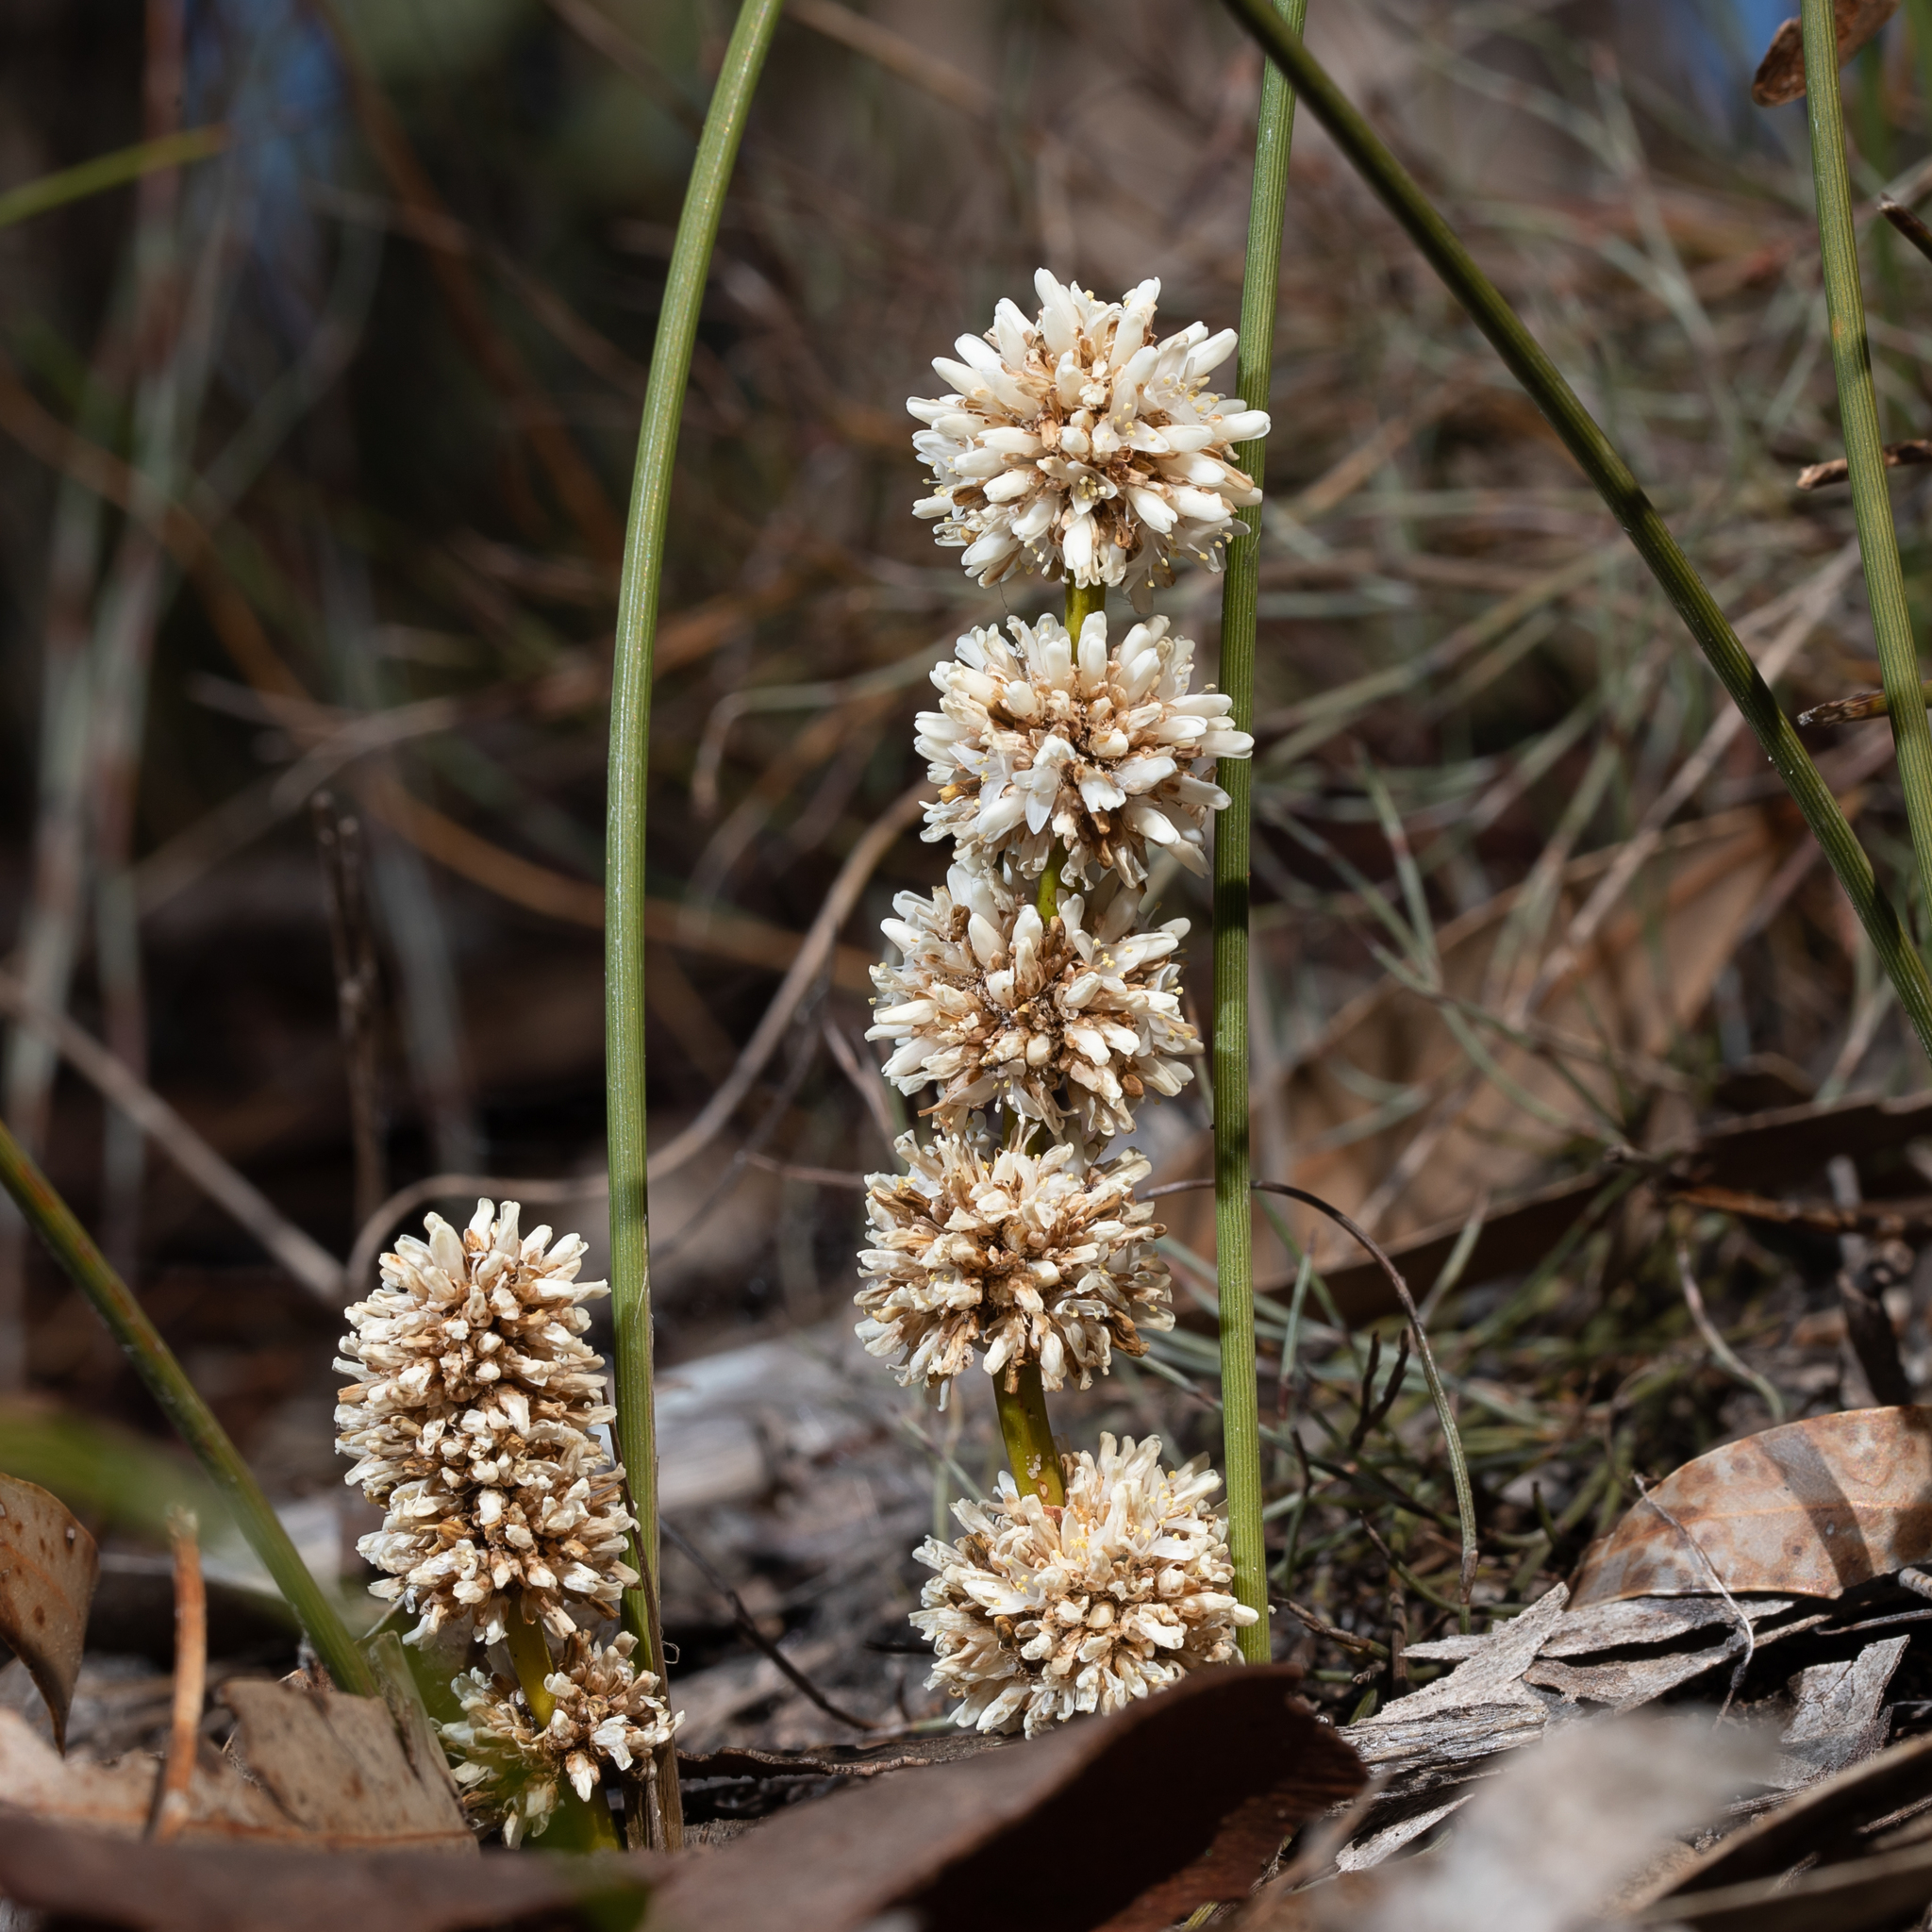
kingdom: Plantae
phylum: Tracheophyta
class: Liliopsida
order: Asparagales
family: Asparagaceae
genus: Lomandra
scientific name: Lomandra juncea
